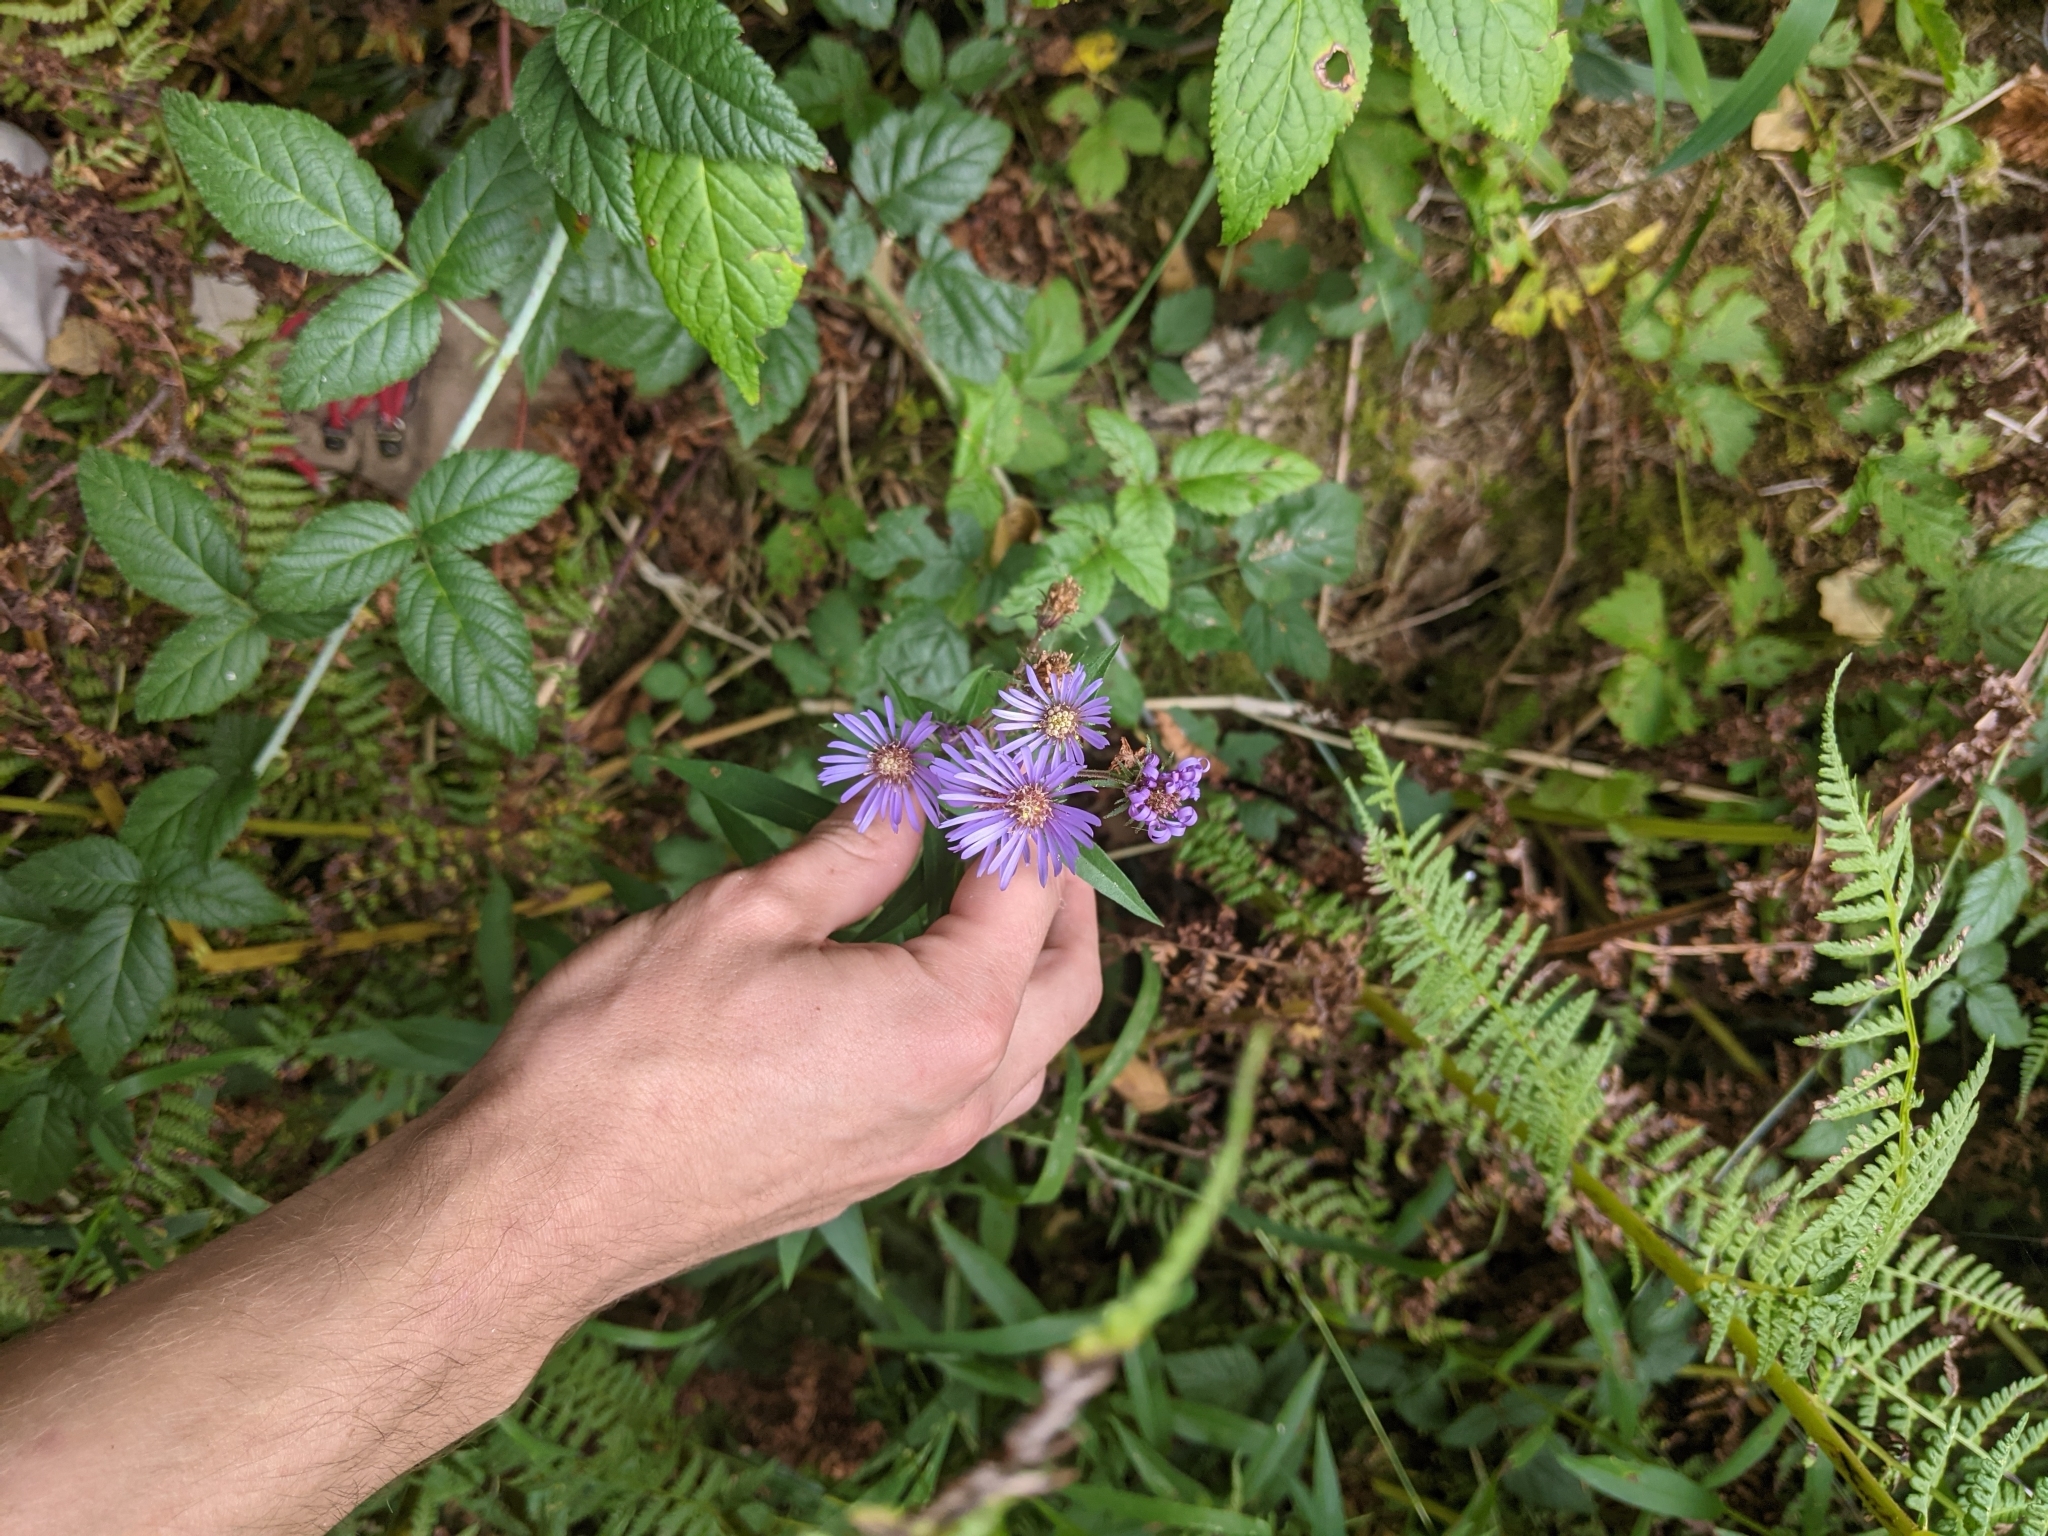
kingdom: Plantae
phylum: Tracheophyta
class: Magnoliopsida
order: Asterales
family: Asteraceae
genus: Canadanthus
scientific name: Canadanthus modestus
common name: Great northern aster
